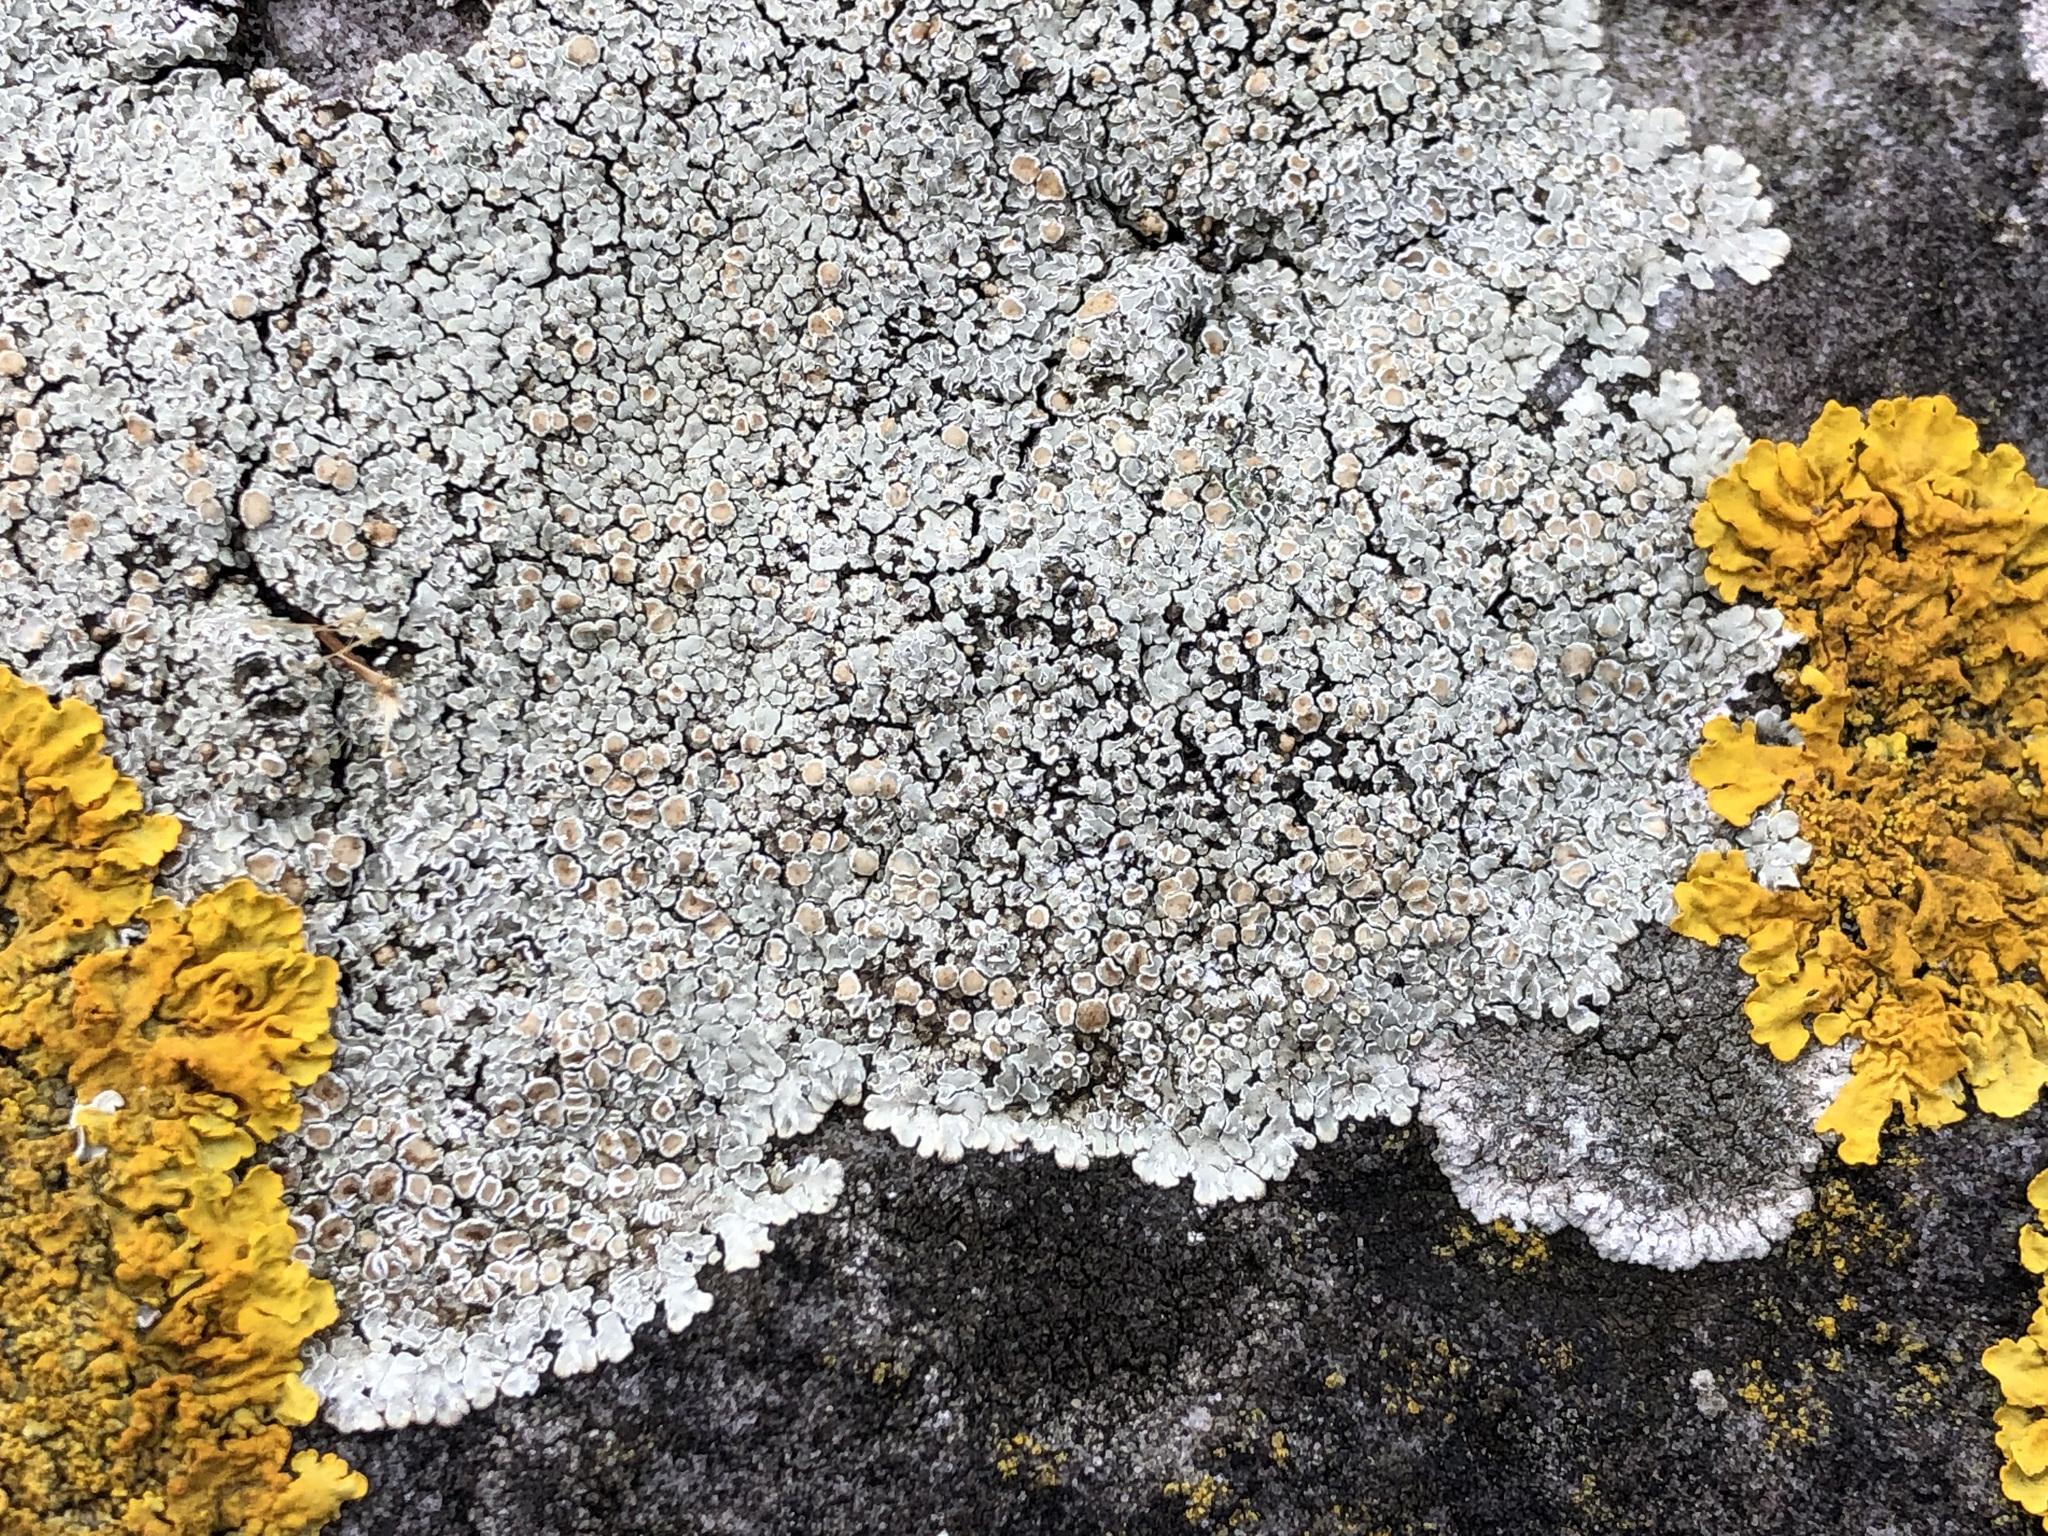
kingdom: Fungi
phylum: Ascomycota
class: Lecanoromycetes
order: Lecanorales
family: Lecanoraceae
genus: Protoparmeliopsis
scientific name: Protoparmeliopsis muralis
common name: Stonewall rim lichen
